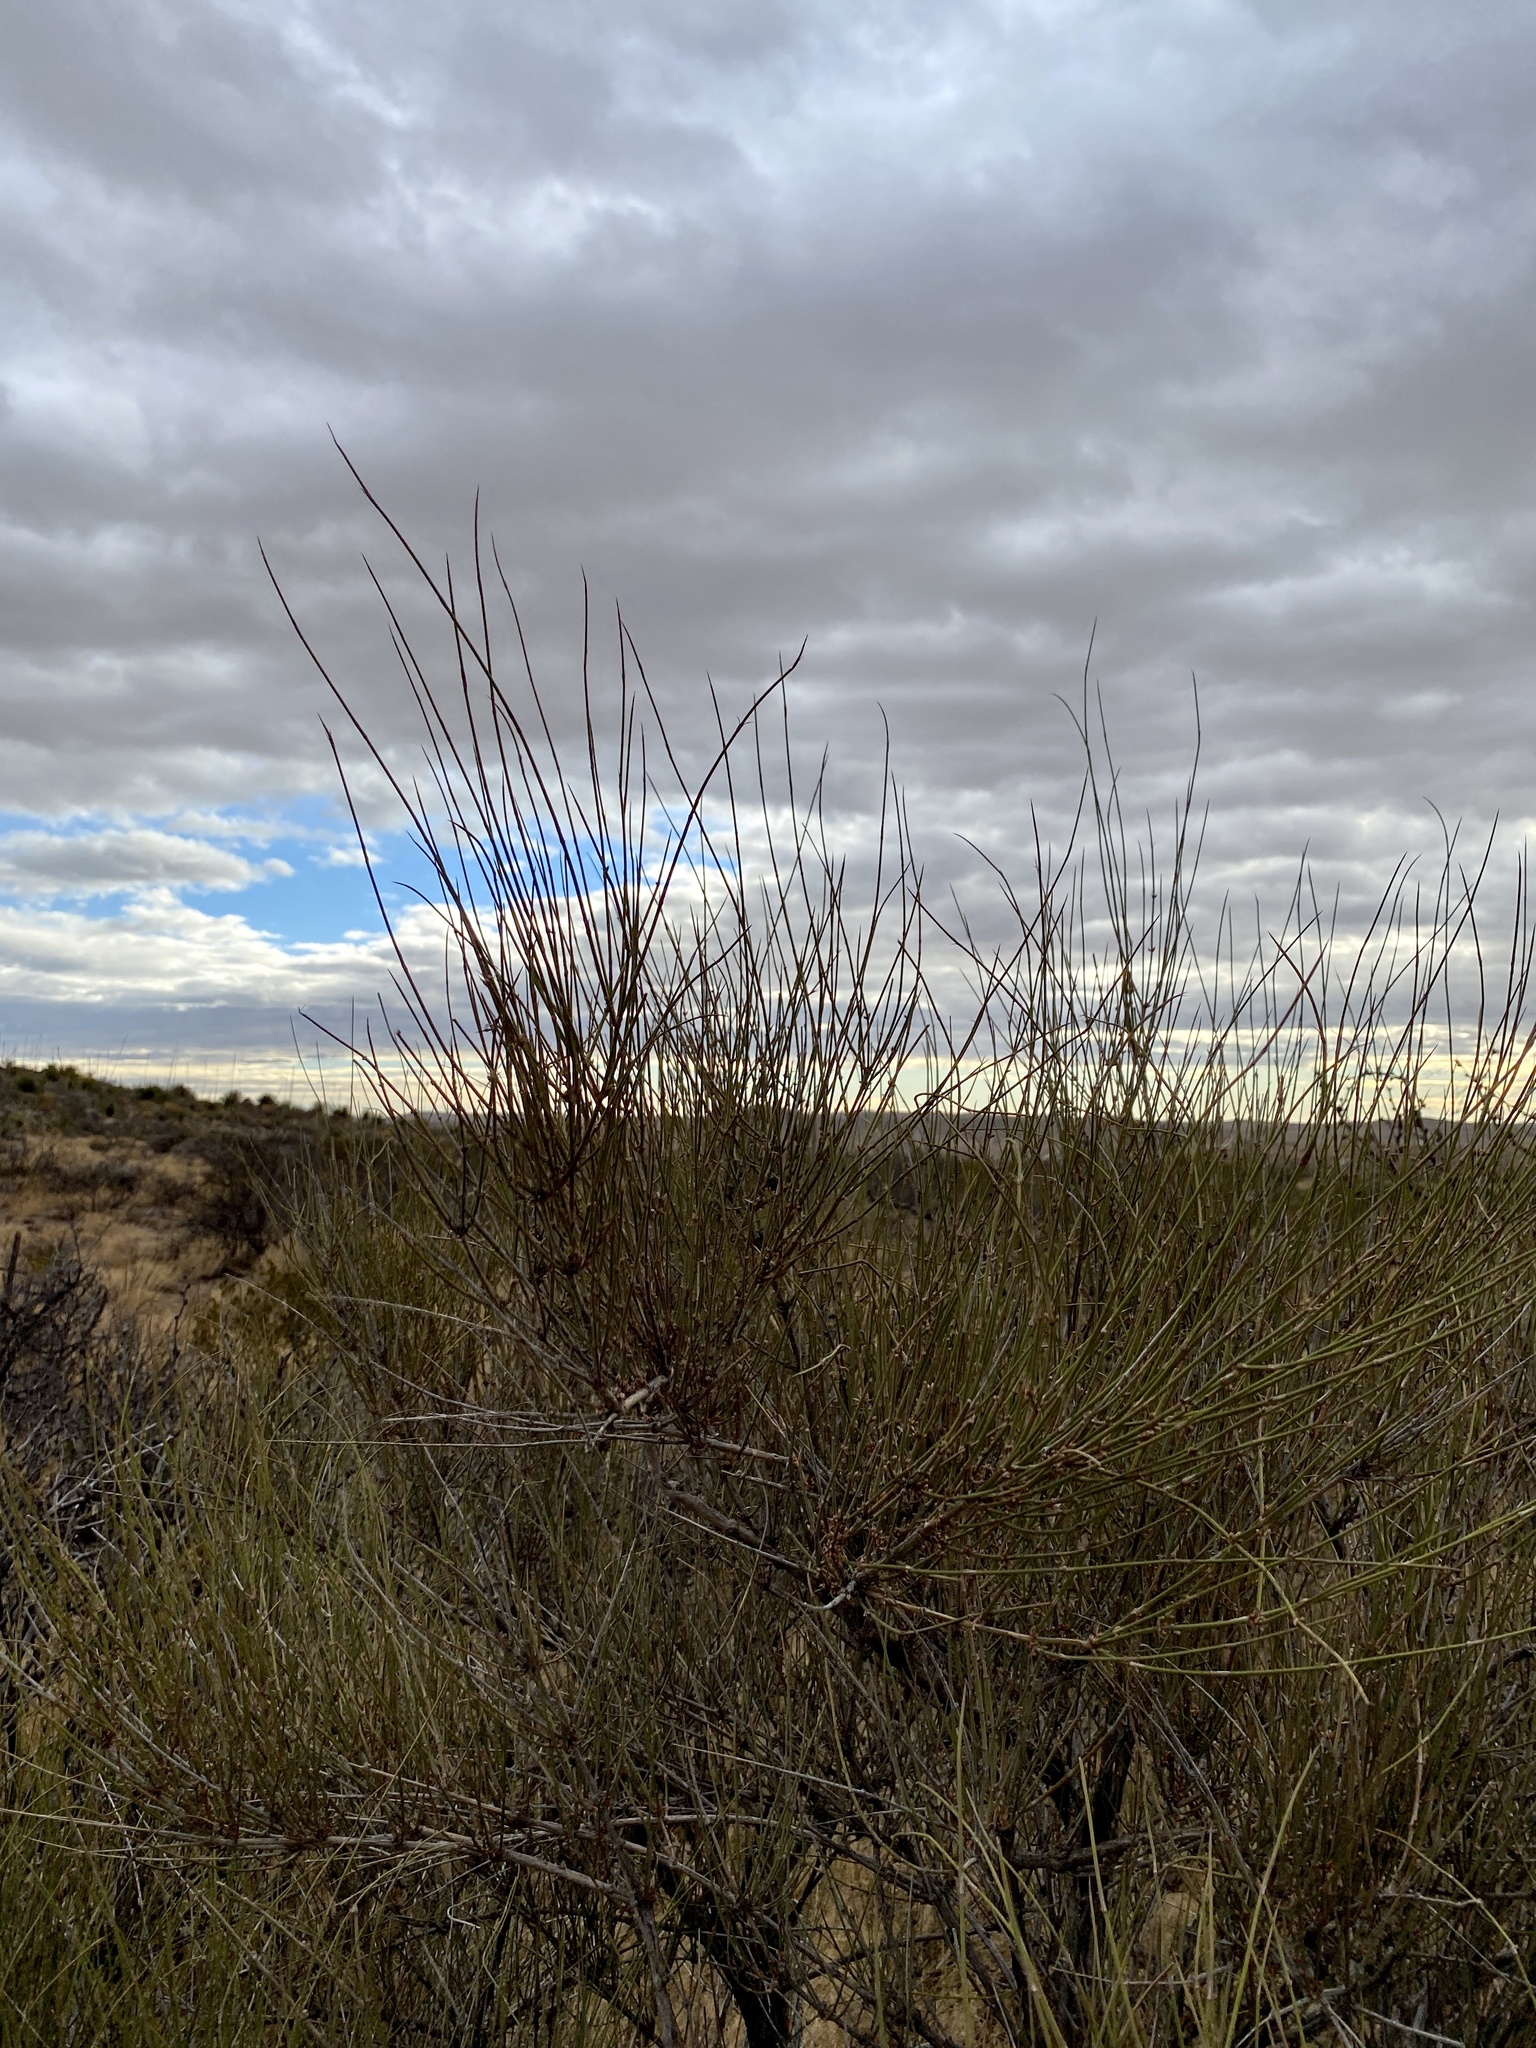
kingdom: Plantae
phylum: Tracheophyta
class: Gnetopsida
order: Ephedrales
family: Ephedraceae
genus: Ephedra
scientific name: Ephedra trifurca
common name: Mexican-tea
